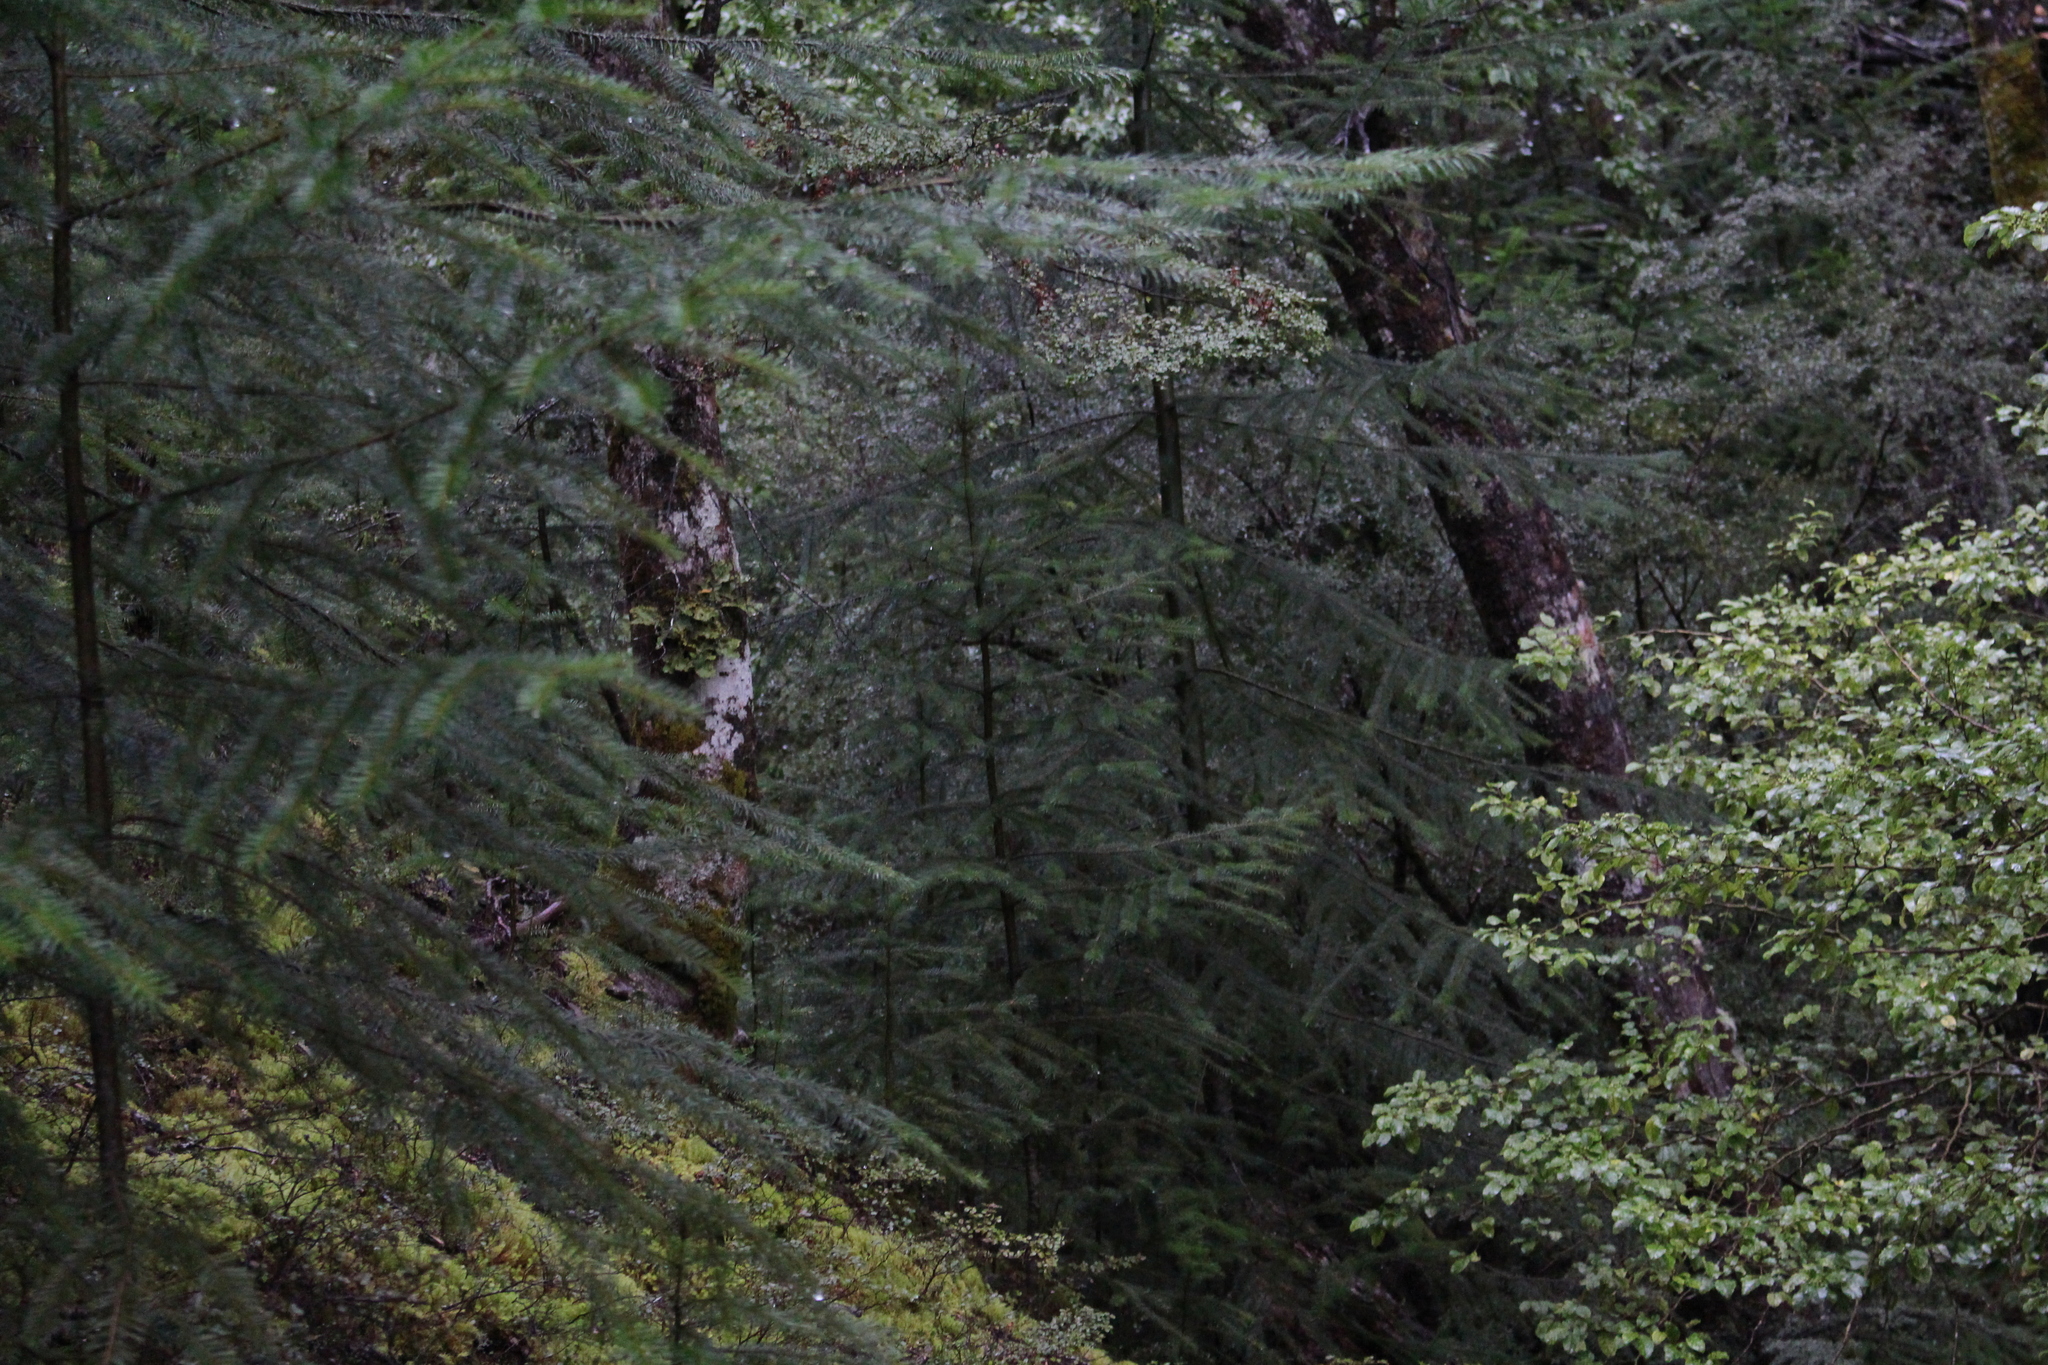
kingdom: Plantae
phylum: Tracheophyta
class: Pinopsida
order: Pinales
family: Pinaceae
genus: Pseudotsuga
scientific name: Pseudotsuga menziesii
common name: Douglas fir
